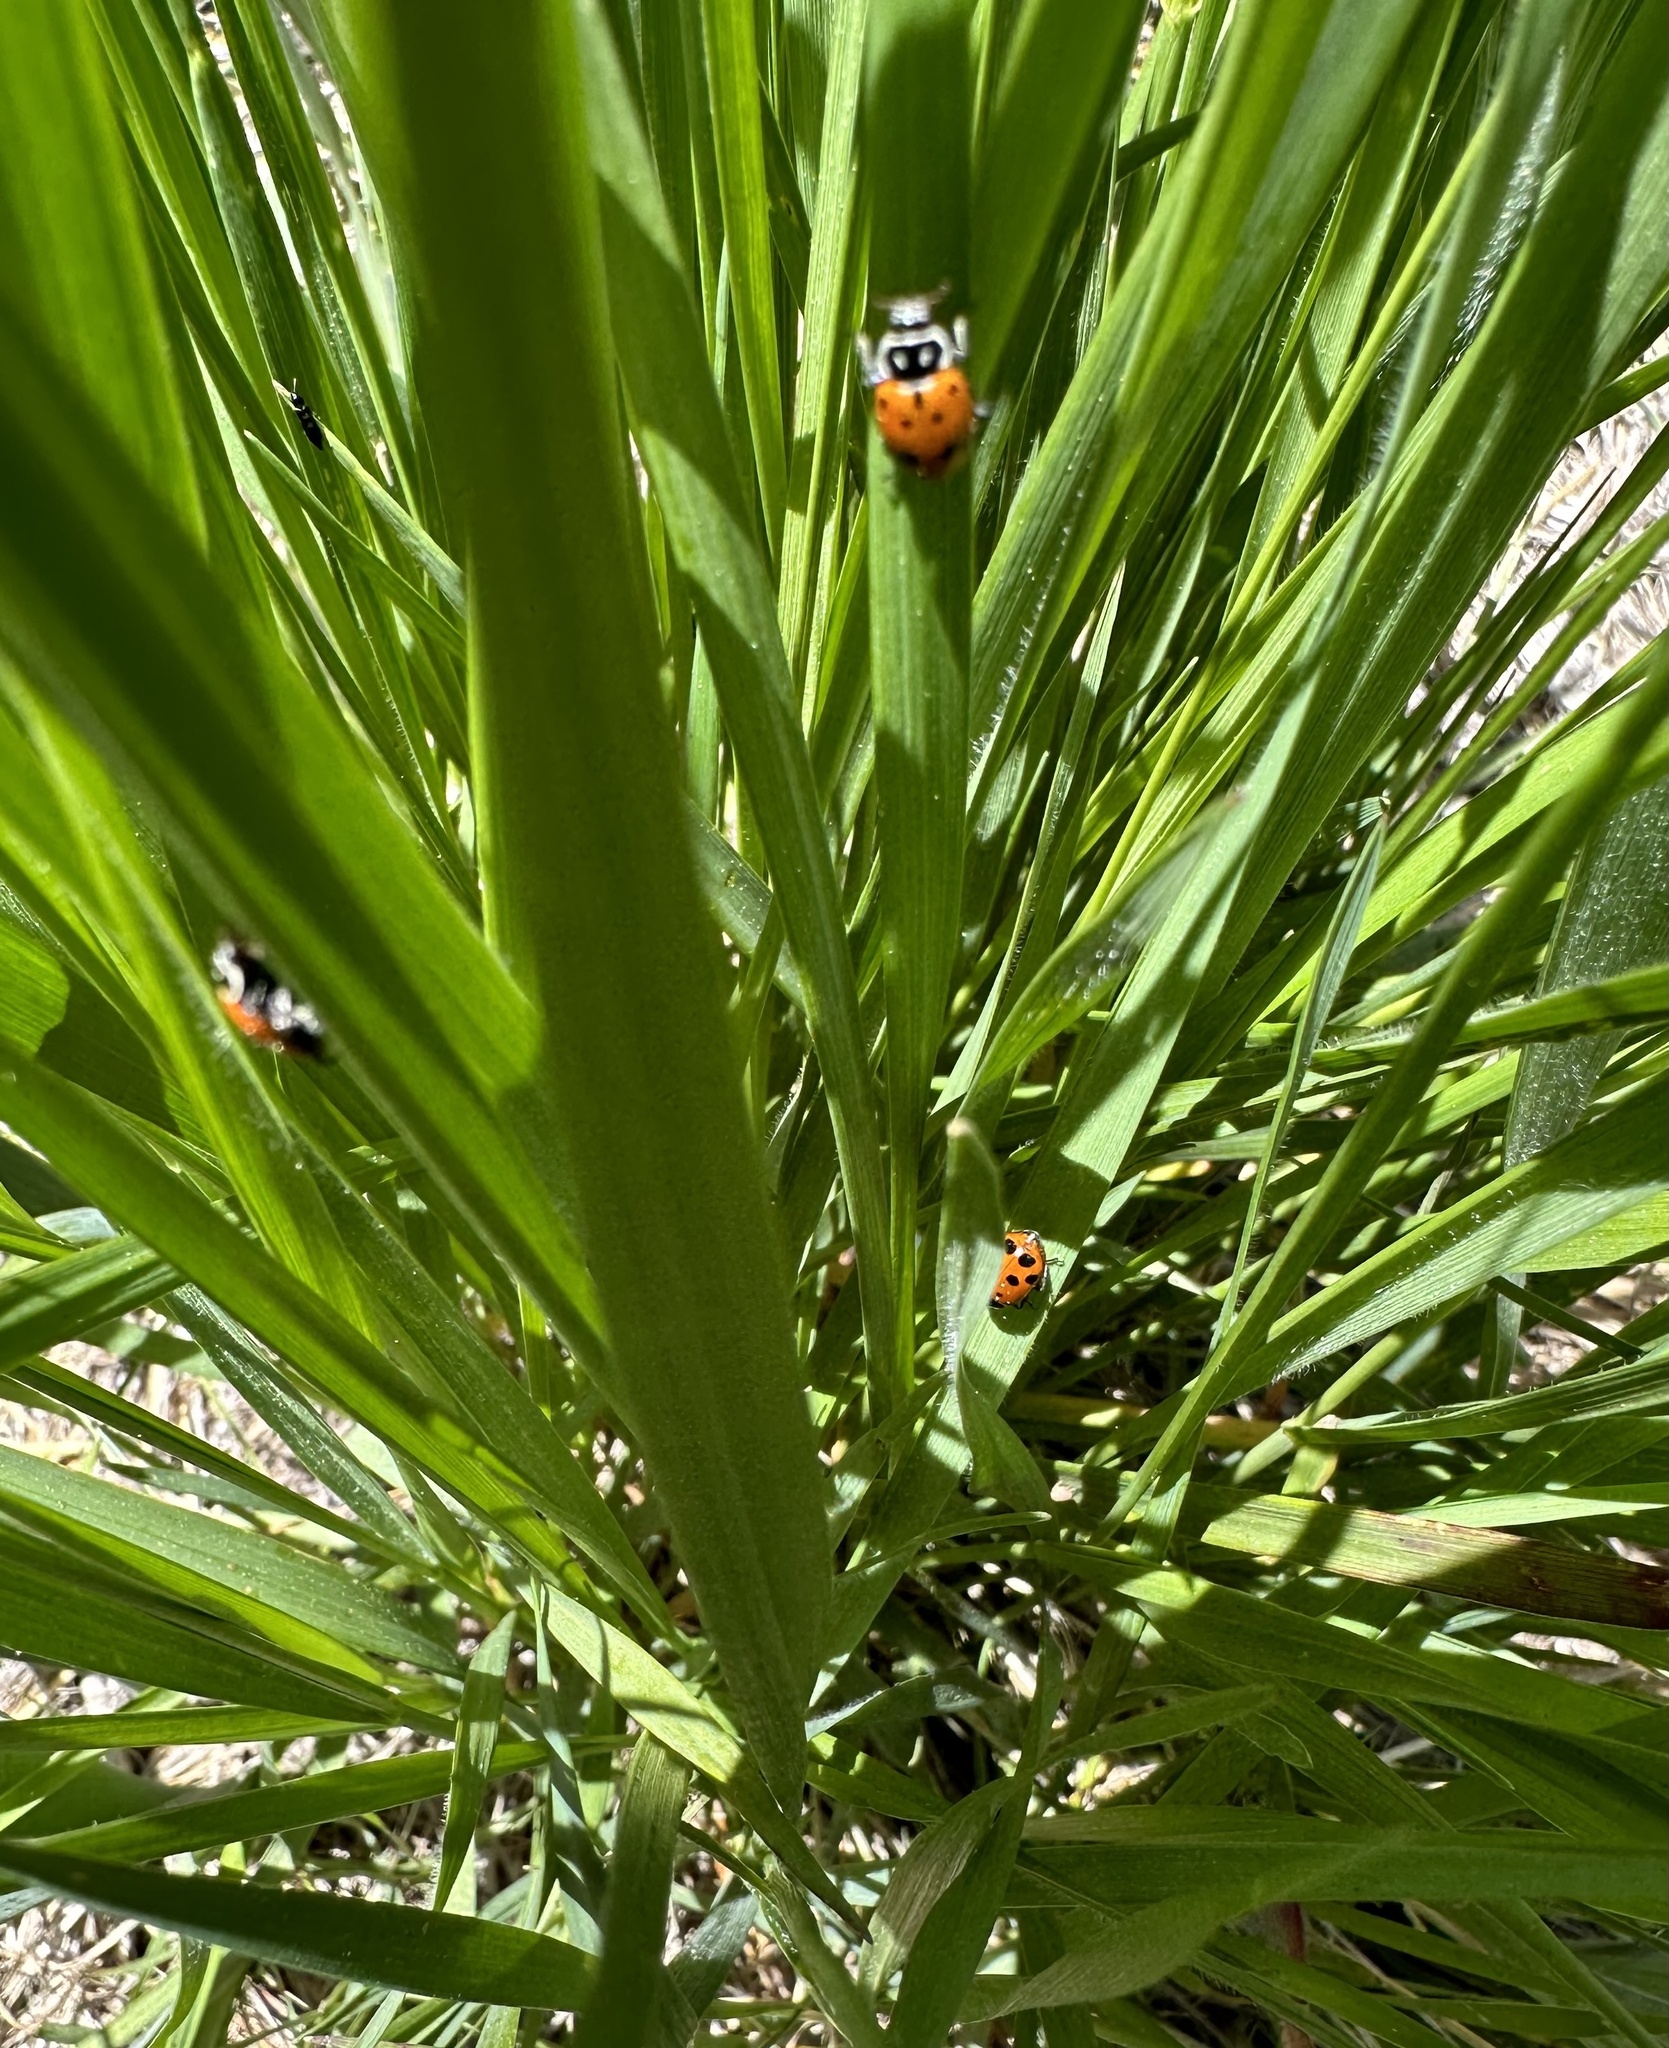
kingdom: Animalia
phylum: Arthropoda
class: Insecta
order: Coleoptera
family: Coccinellidae
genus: Hippodamia
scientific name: Hippodamia convergens
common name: Convergent lady beetle
